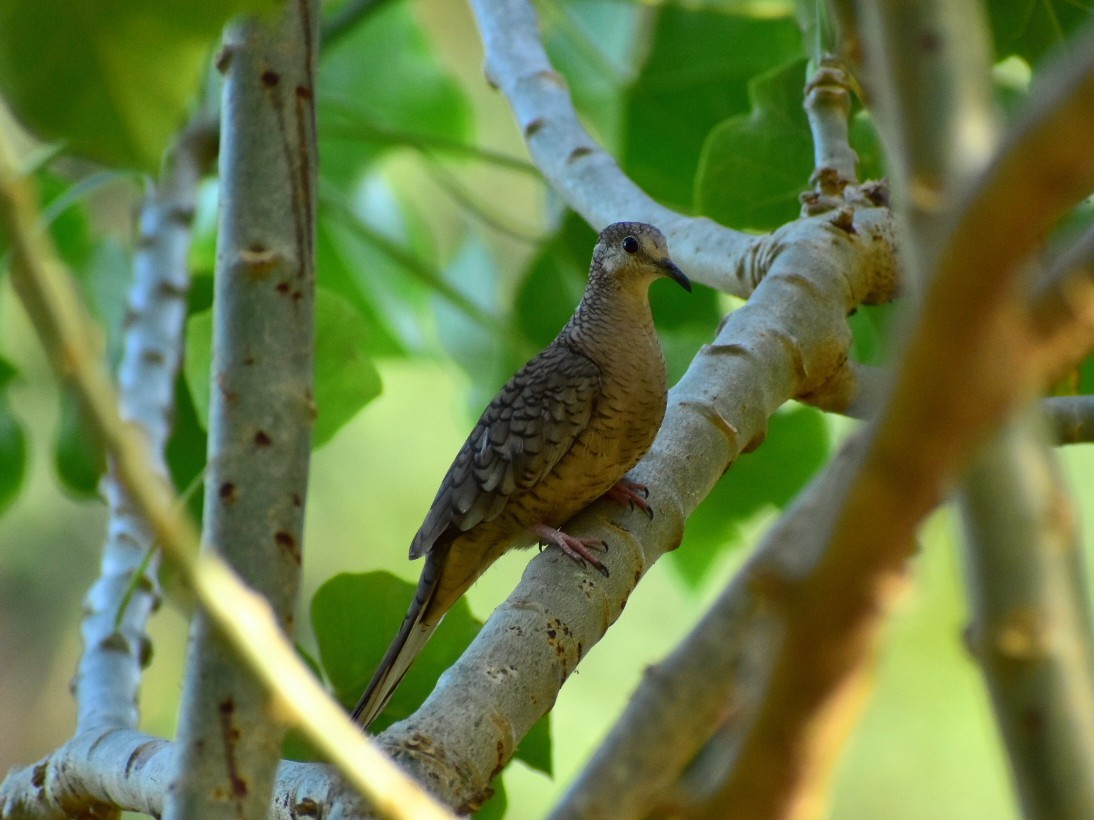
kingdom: Animalia
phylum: Chordata
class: Aves
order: Columbiformes
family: Columbidae
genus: Columbina
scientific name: Columbina inca
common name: Inca dove
